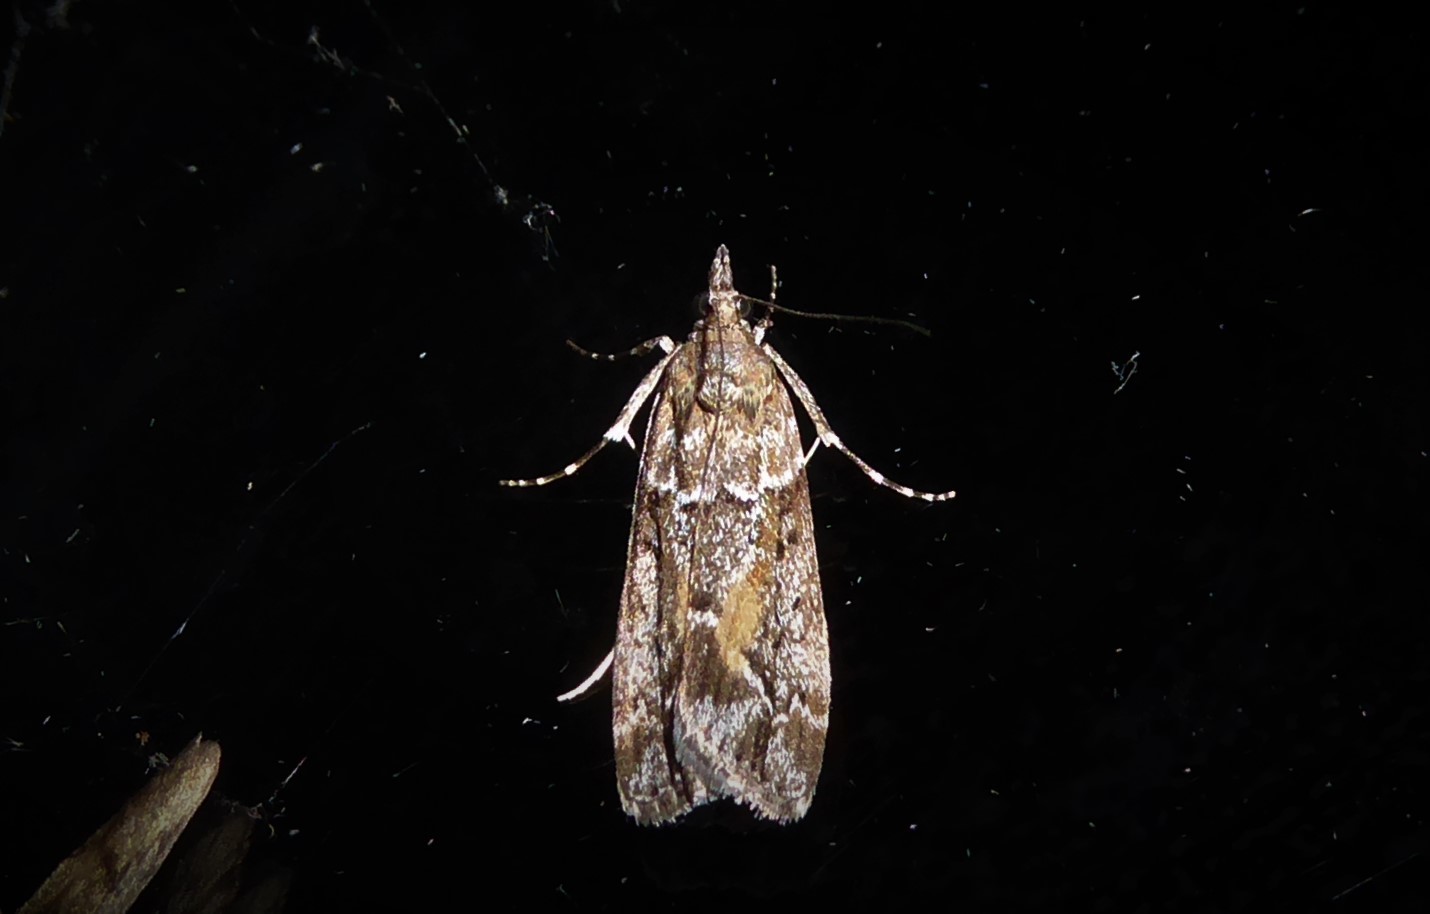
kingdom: Animalia
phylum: Arthropoda
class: Insecta
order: Lepidoptera
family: Crambidae
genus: Eudonia
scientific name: Eudonia submarginalis
